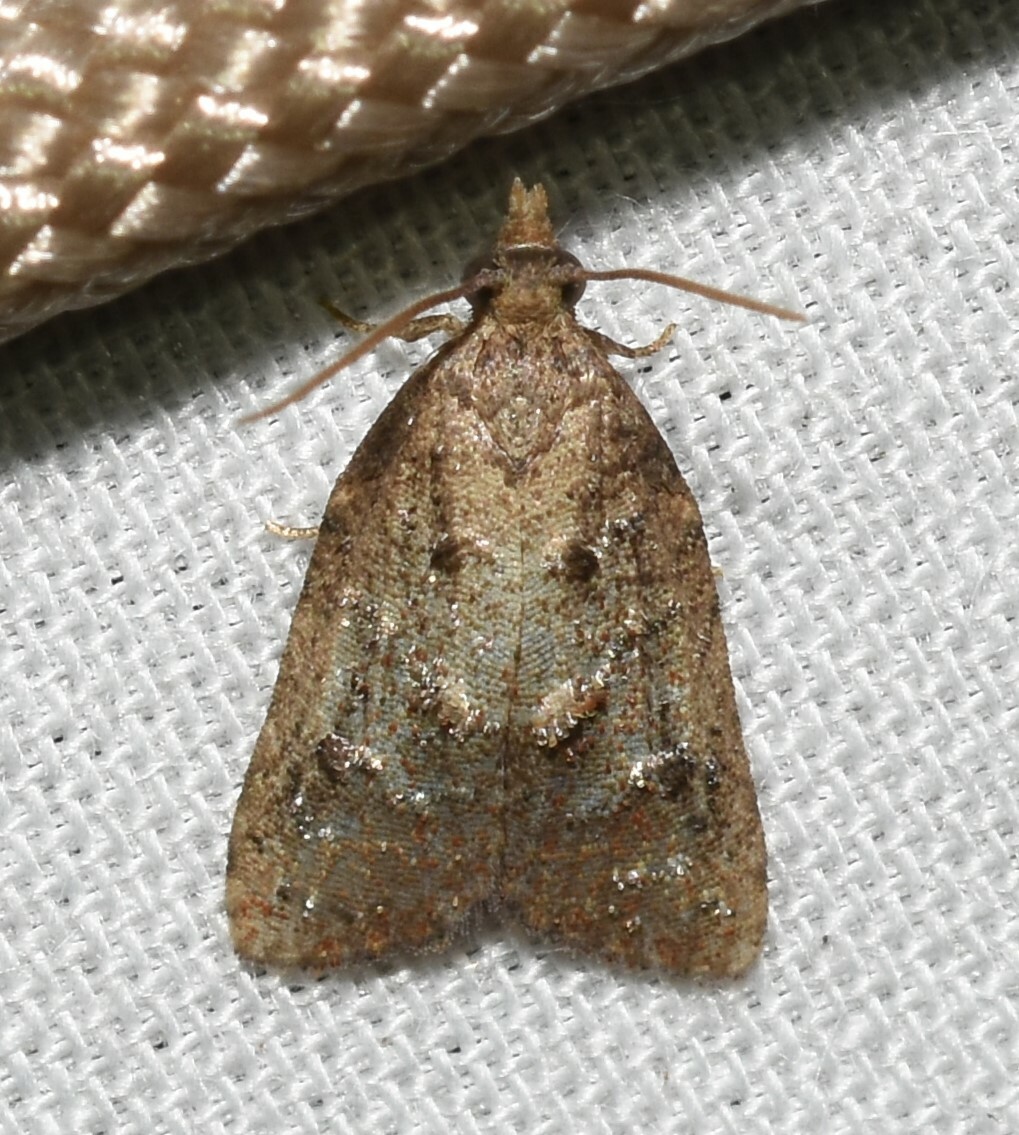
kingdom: Animalia
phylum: Arthropoda
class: Insecta
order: Lepidoptera
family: Tortricidae
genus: Platynota
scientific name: Platynota idaeusalis
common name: Tufted apple bud moth
